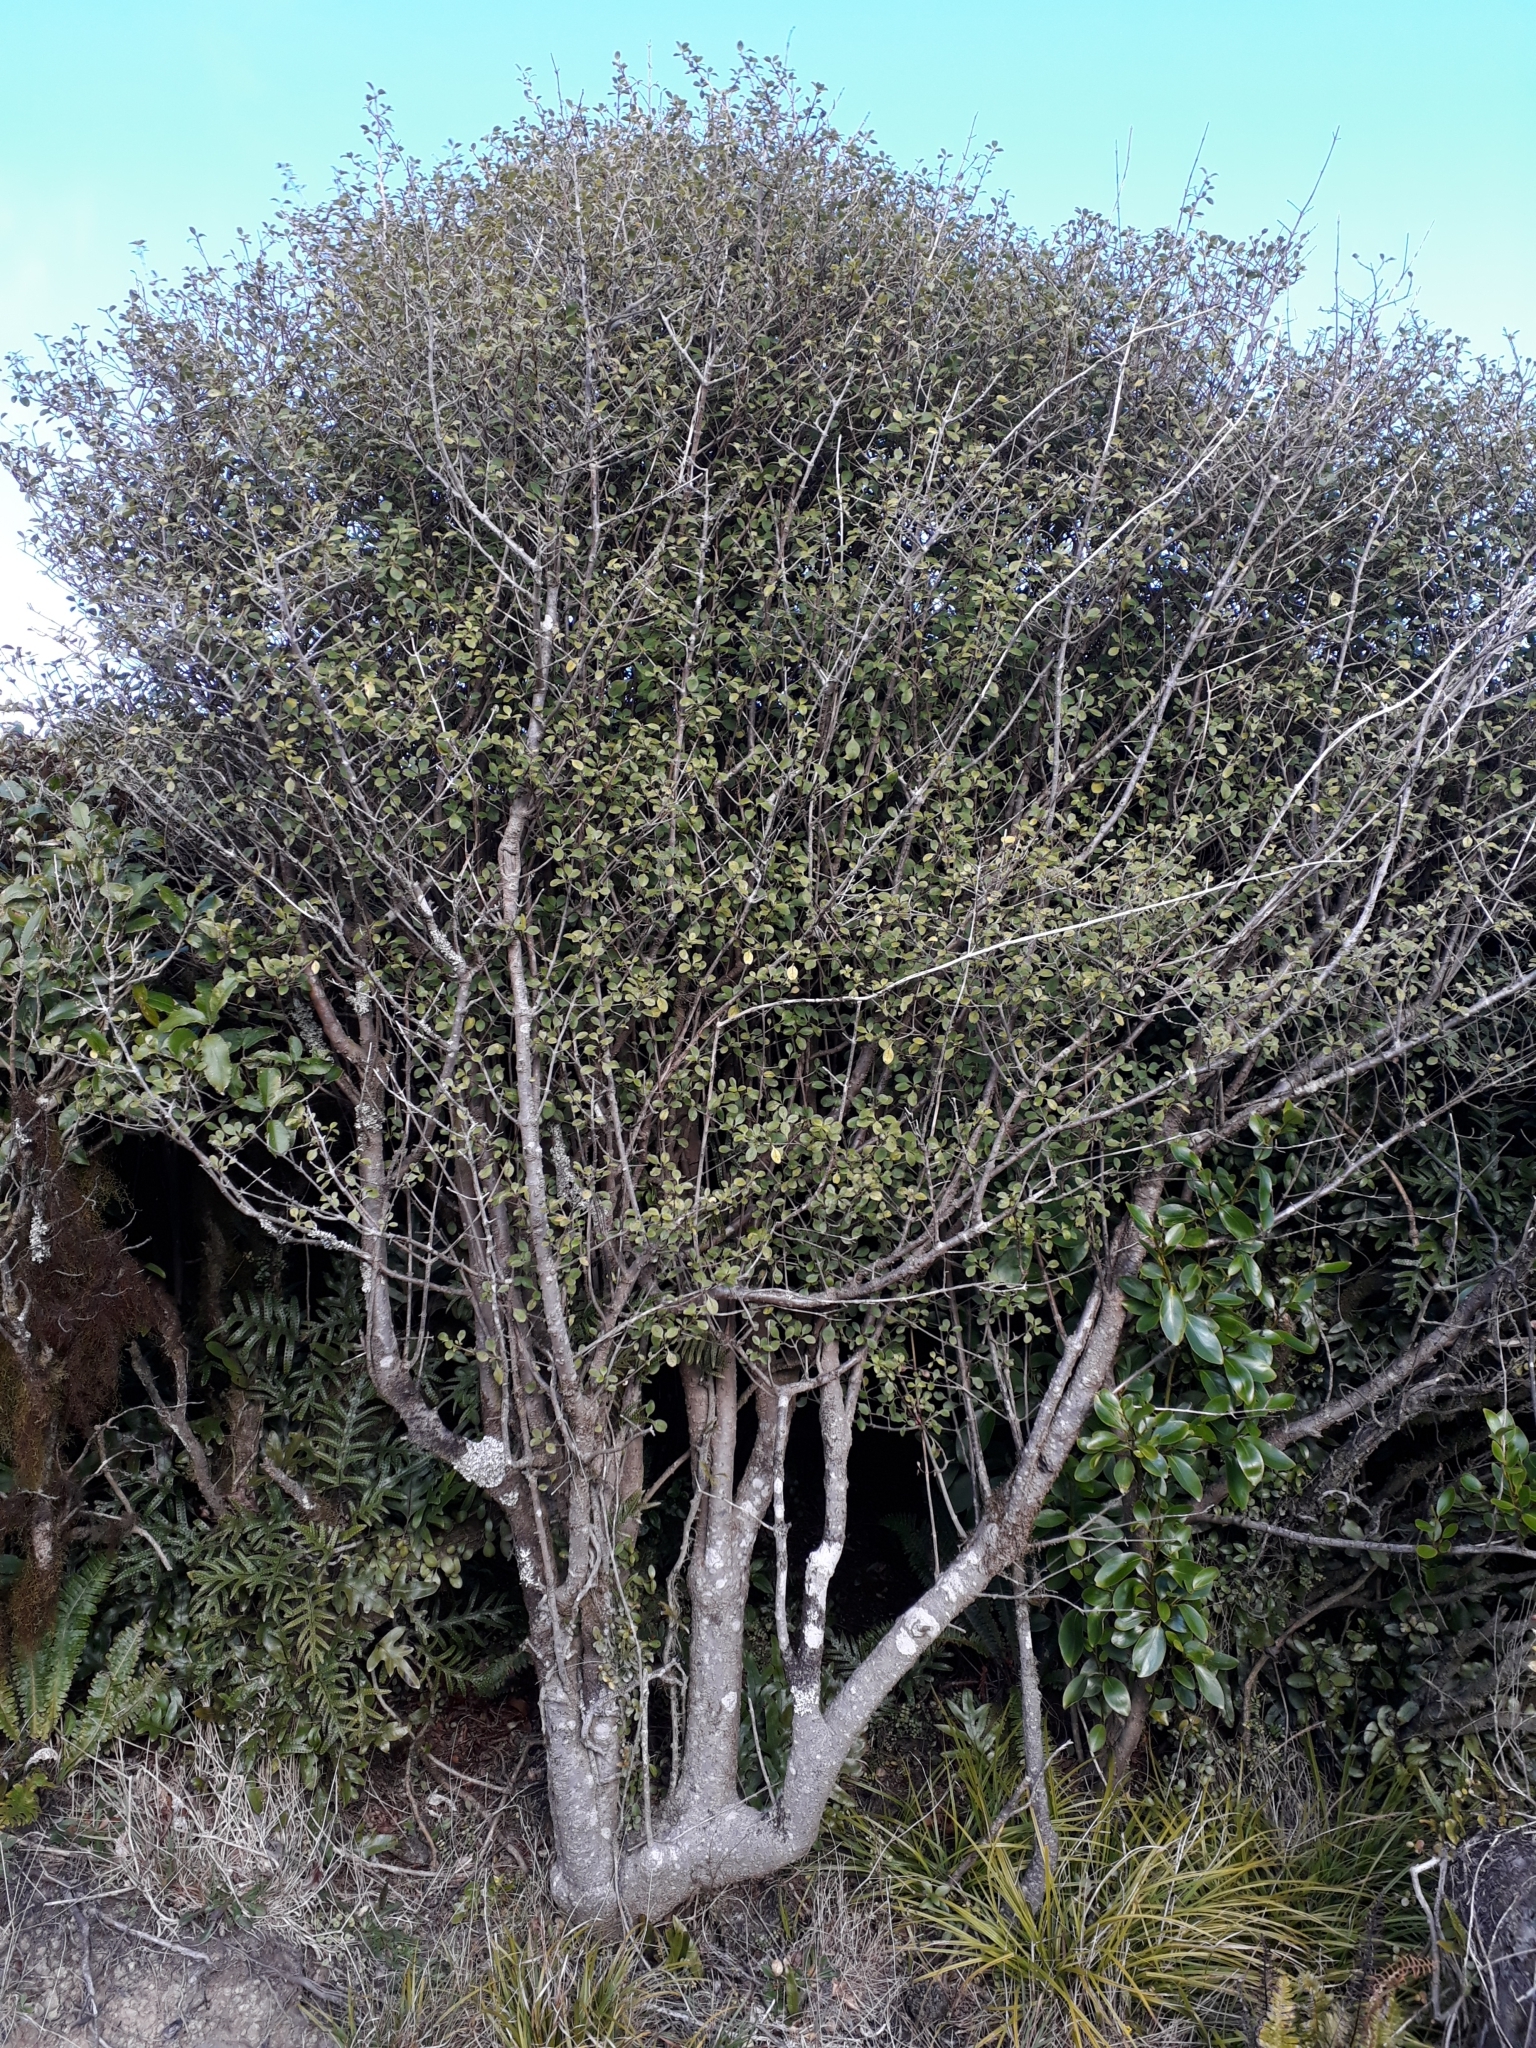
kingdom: Plantae
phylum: Tracheophyta
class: Magnoliopsida
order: Gentianales
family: Rubiaceae
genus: Coprosma
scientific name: Coprosma foetidissima
